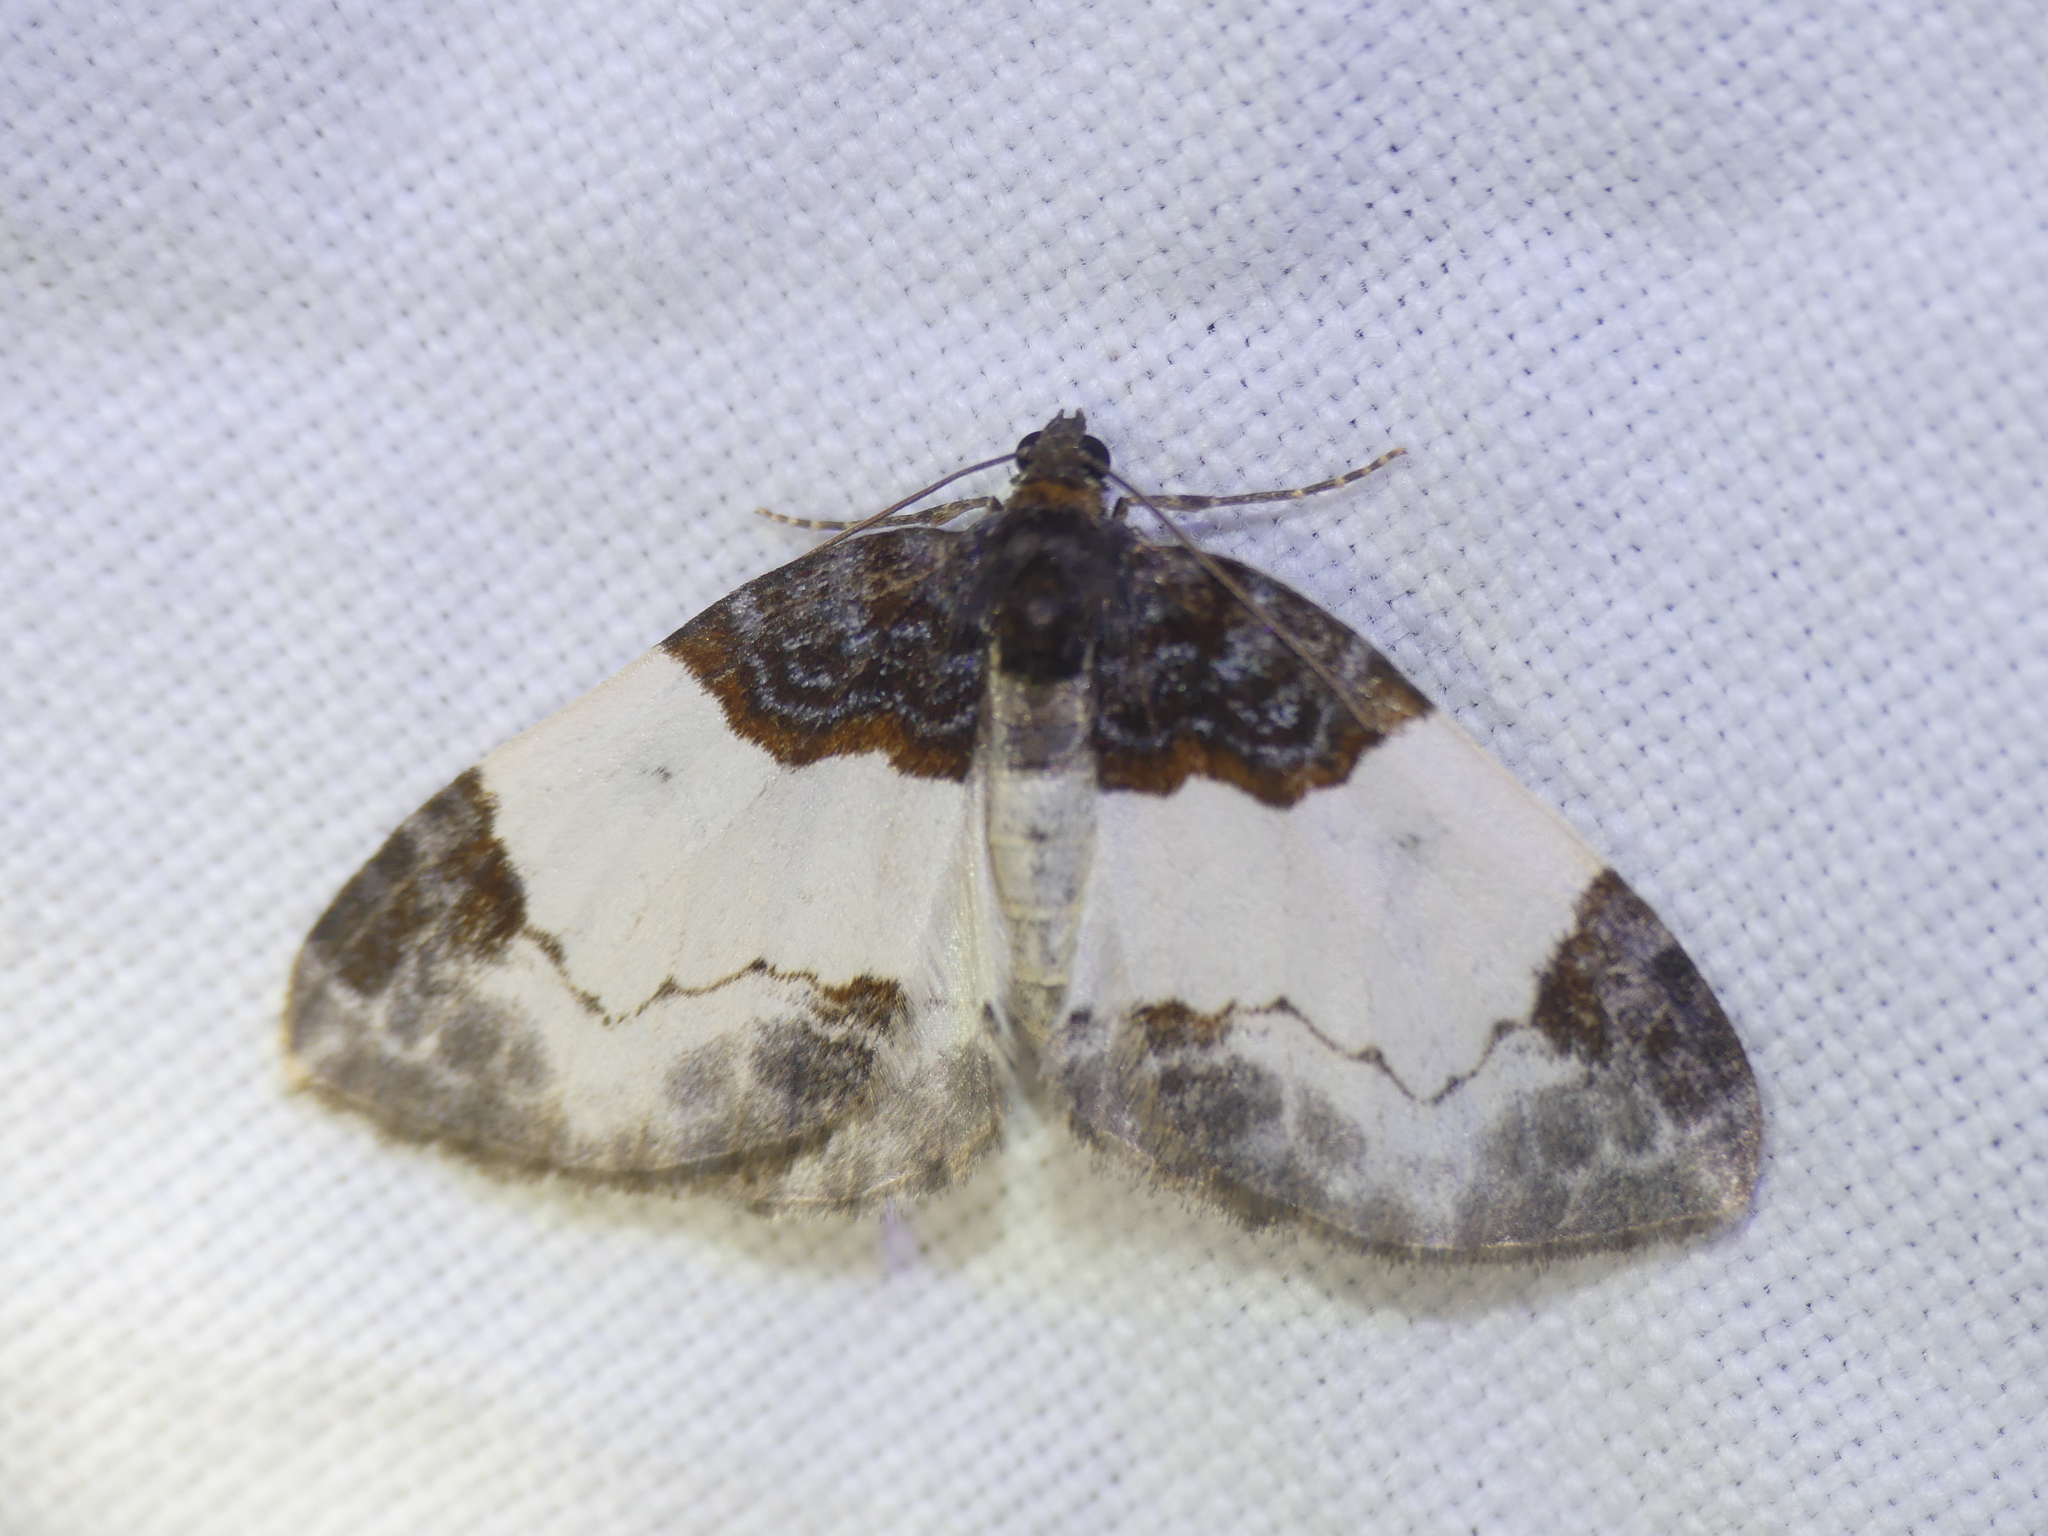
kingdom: Animalia
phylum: Arthropoda
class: Insecta
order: Lepidoptera
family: Geometridae
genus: Mesoleuca
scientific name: Mesoleuca albicillata
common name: Beautiful carpet
